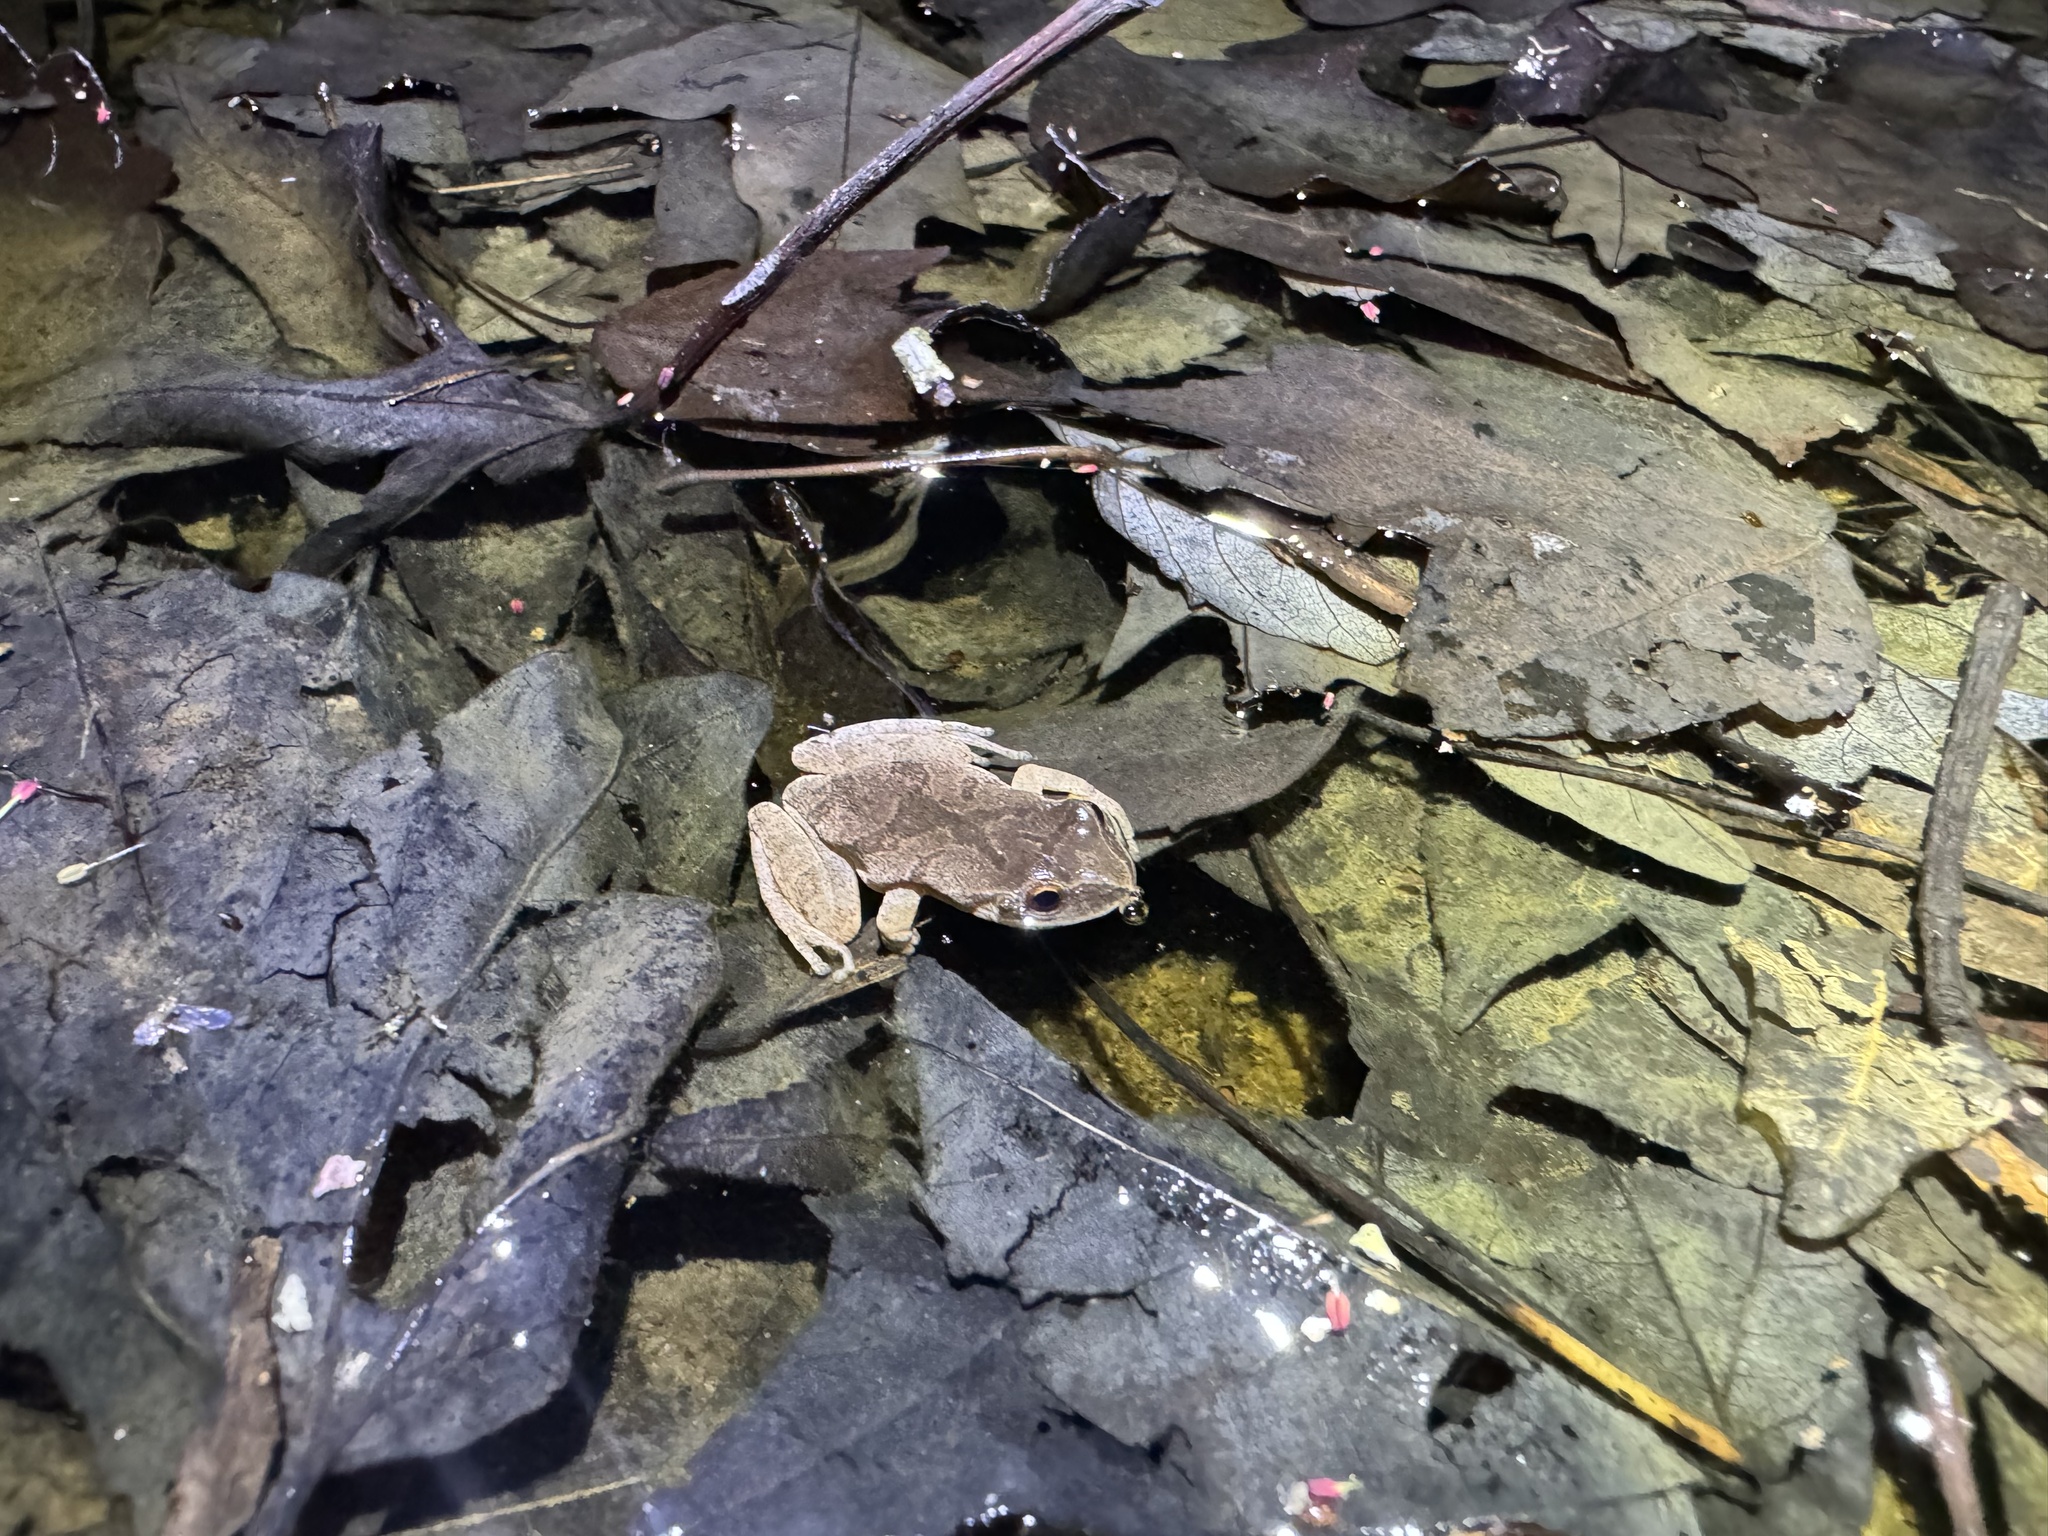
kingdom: Animalia
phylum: Chordata
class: Amphibia
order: Anura
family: Hylidae
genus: Pseudacris
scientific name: Pseudacris crucifer
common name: Spring peeper
